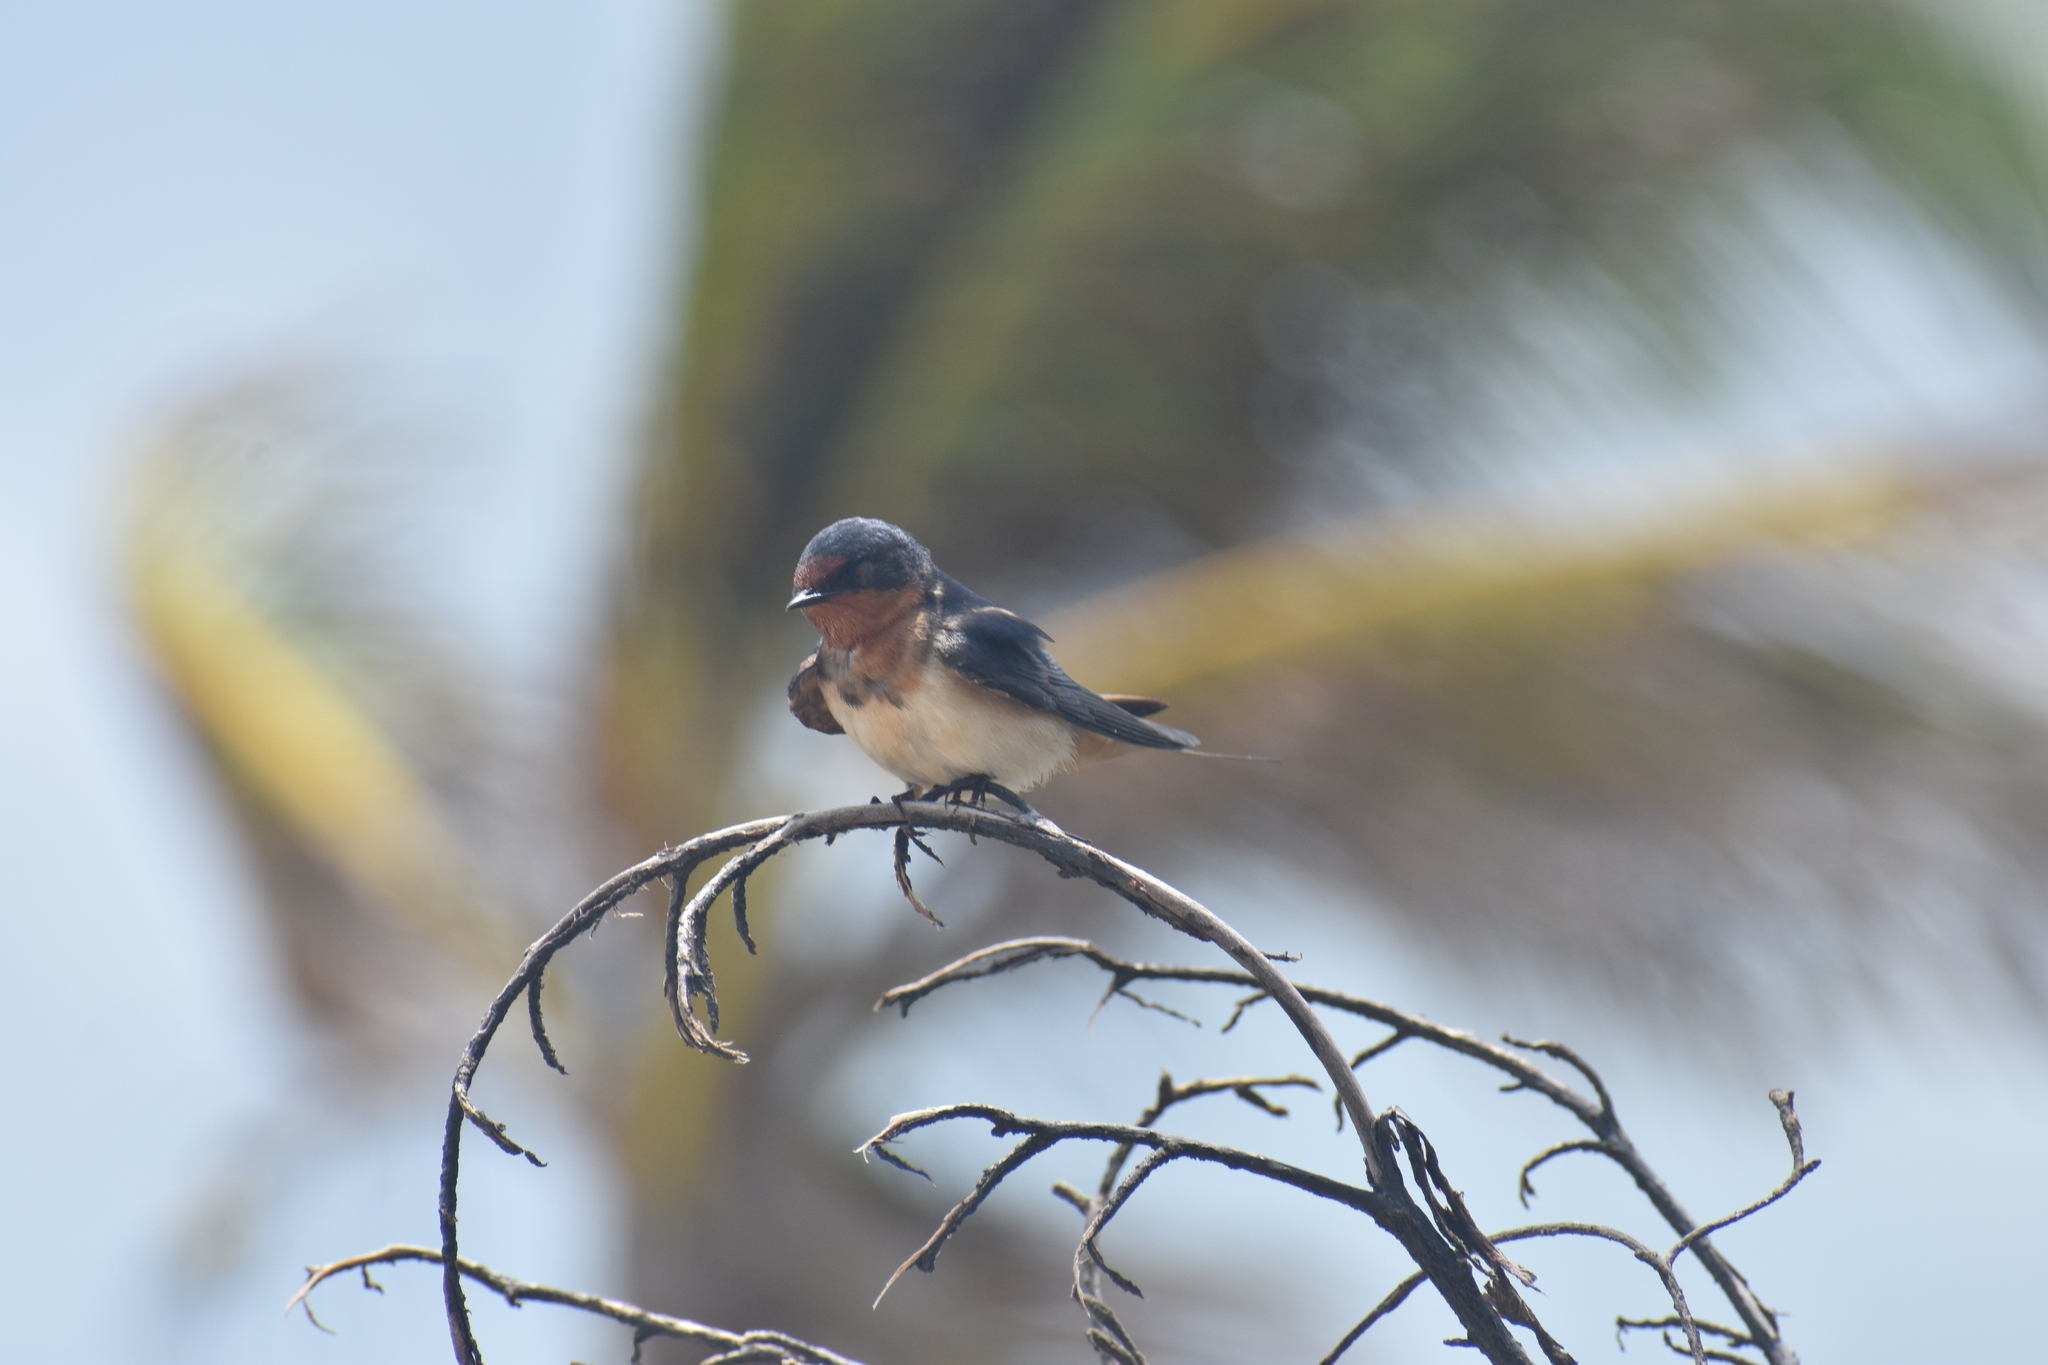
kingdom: Animalia
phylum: Chordata
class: Aves
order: Passeriformes
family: Hirundinidae
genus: Hirundo
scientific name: Hirundo rustica
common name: Barn swallow
